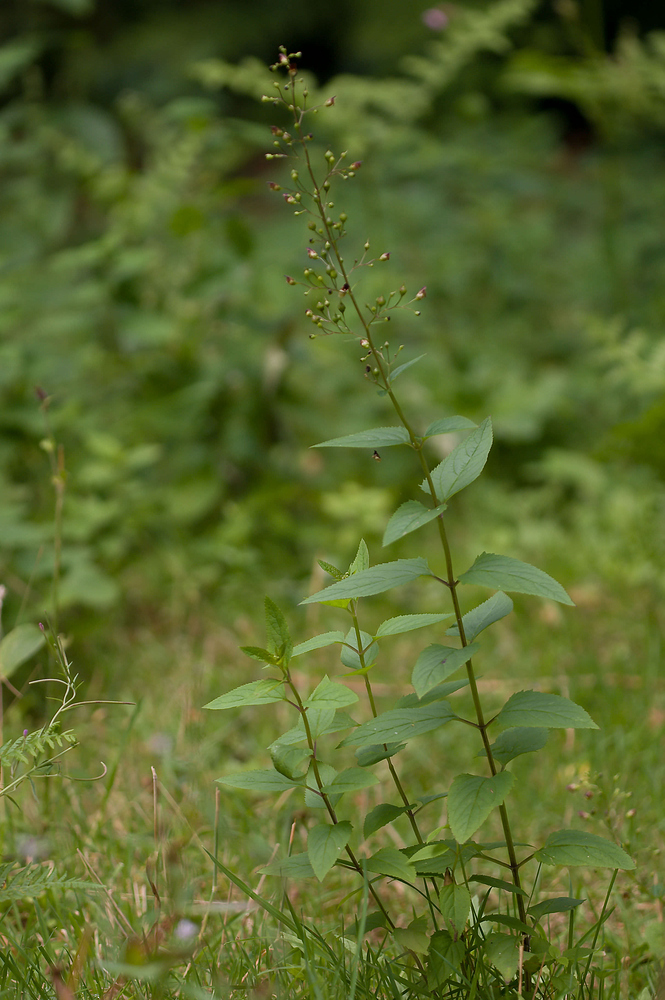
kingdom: Plantae
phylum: Tracheophyta
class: Magnoliopsida
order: Lamiales
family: Scrophulariaceae
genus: Scrophularia
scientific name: Scrophularia nodosa
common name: Common figwort
